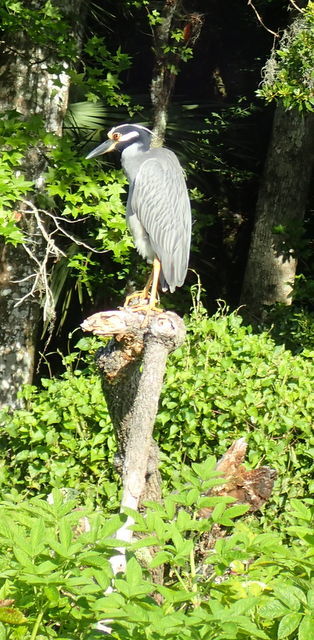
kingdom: Animalia
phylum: Chordata
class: Aves
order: Pelecaniformes
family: Ardeidae
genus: Nyctanassa
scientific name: Nyctanassa violacea
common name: Yellow-crowned night heron
